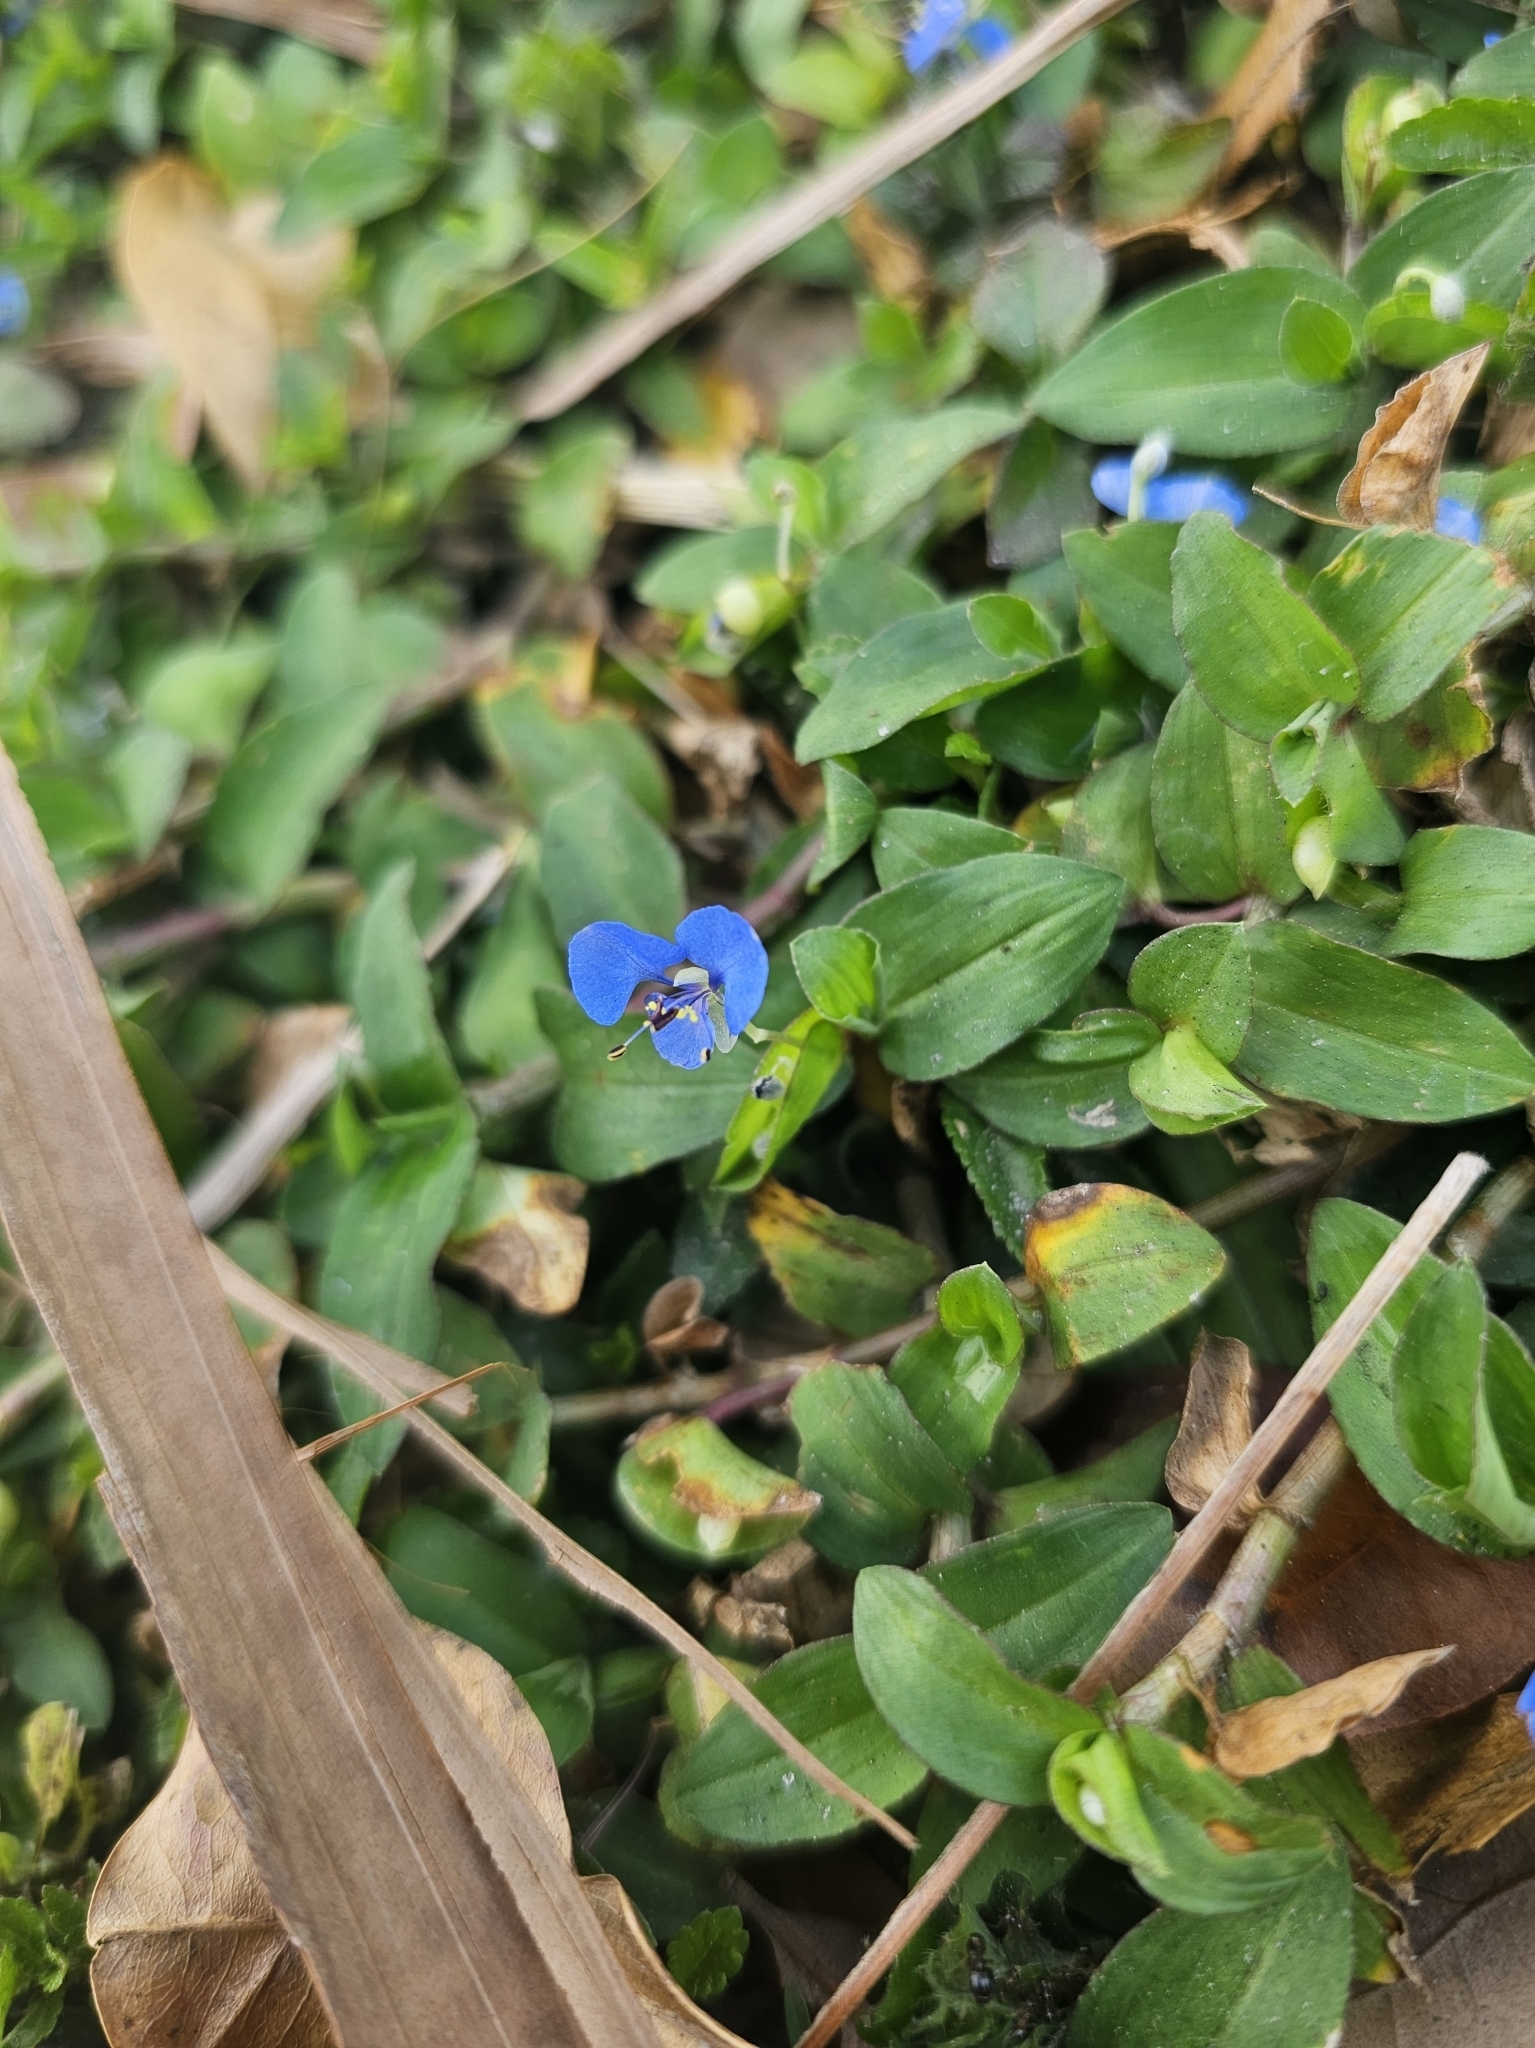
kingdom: Plantae
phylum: Tracheophyta
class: Liliopsida
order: Commelinales
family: Commelinaceae
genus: Commelina
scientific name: Commelina diffusa
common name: Climbing dayflower
